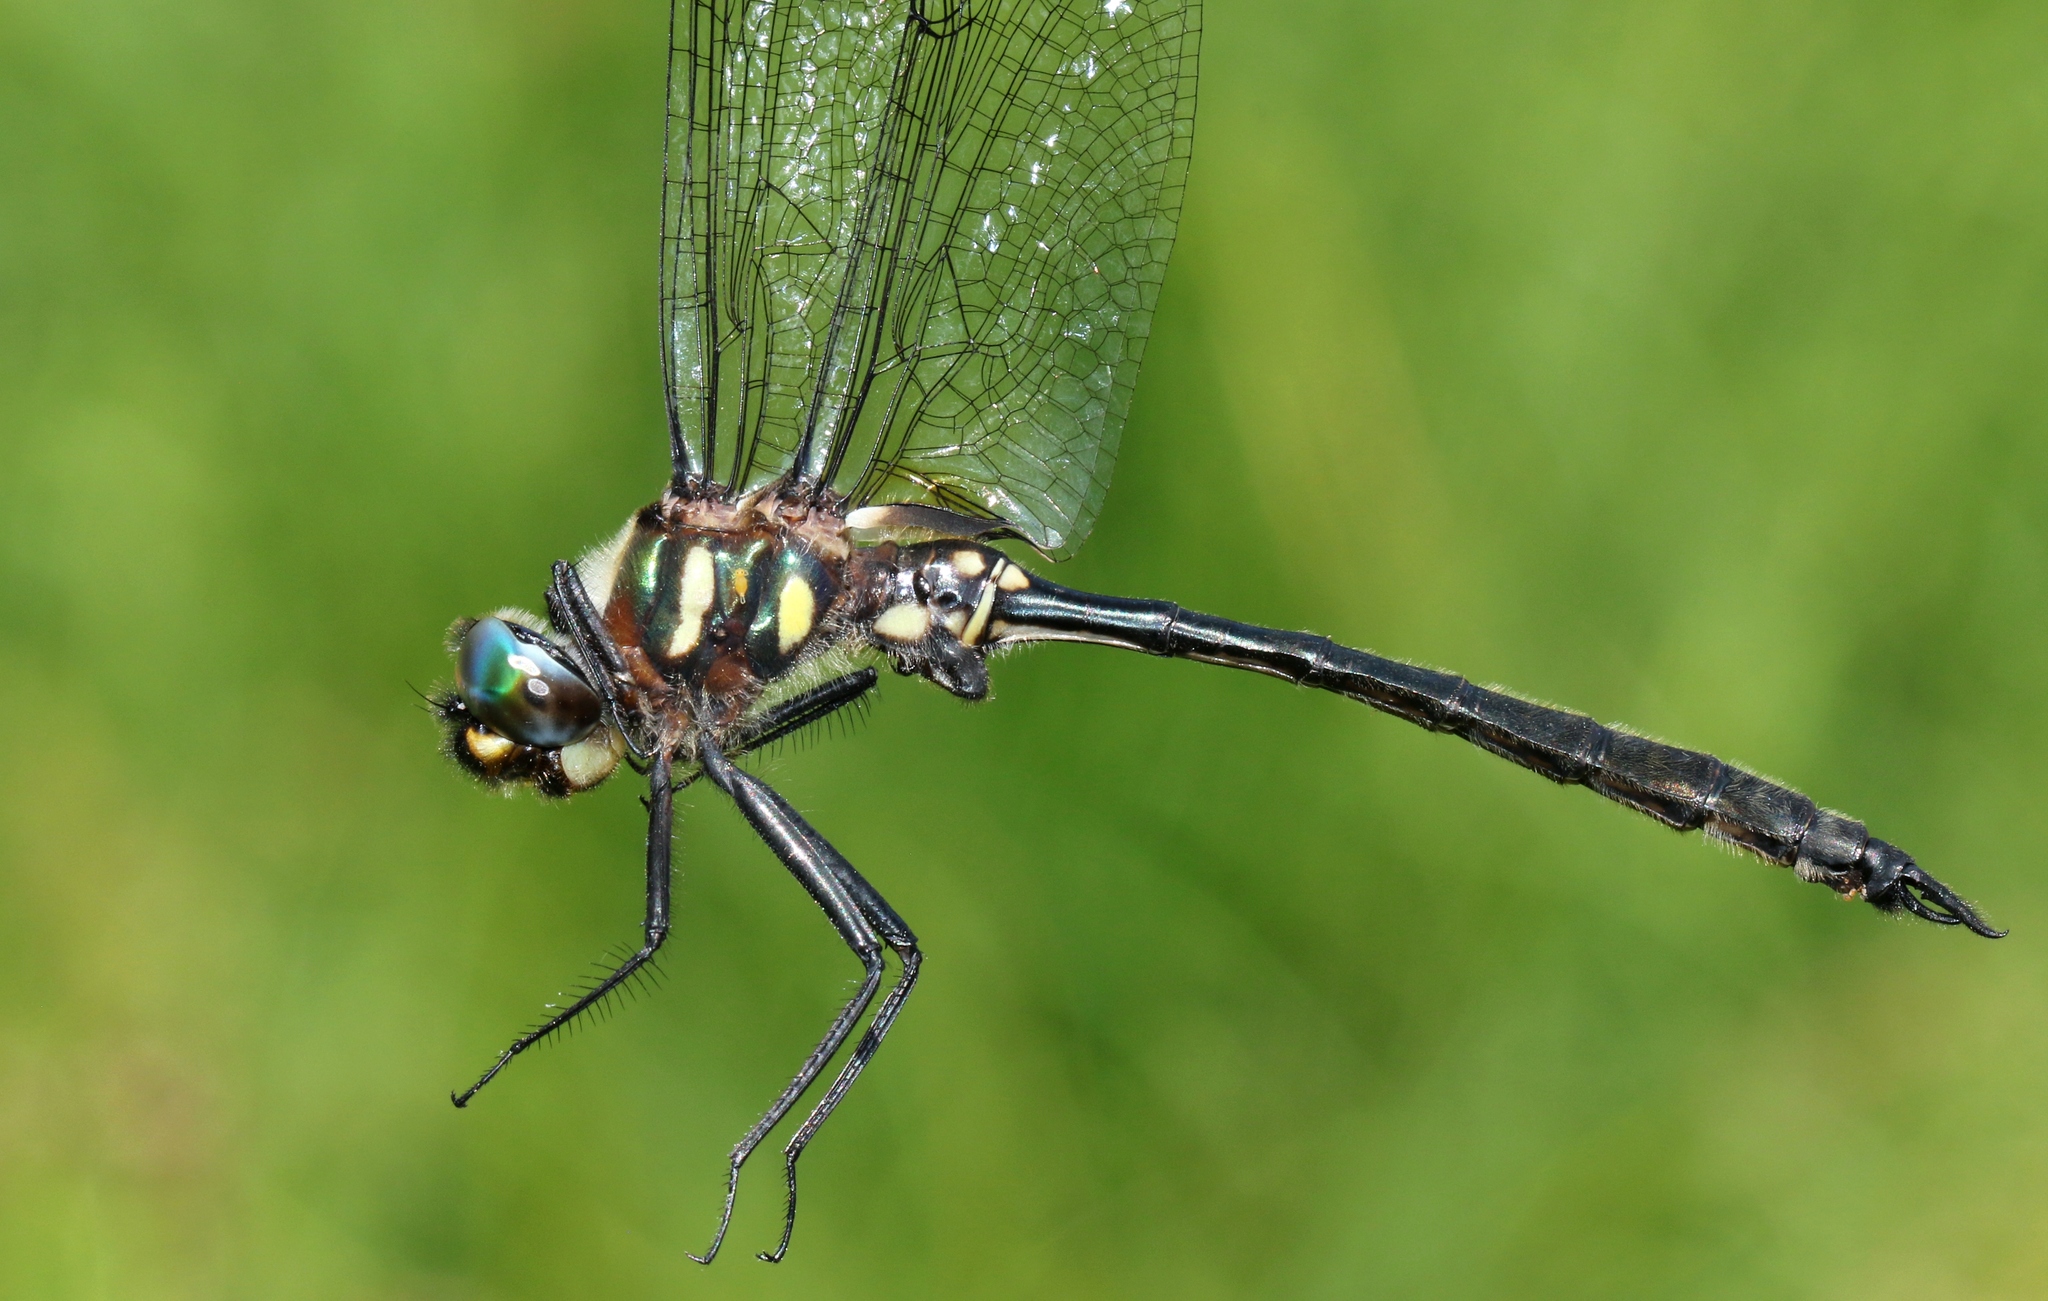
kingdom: Animalia
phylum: Arthropoda
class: Insecta
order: Odonata
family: Corduliidae
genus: Somatochlora
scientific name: Somatochlora elongata
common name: Ski-tipped emerald
